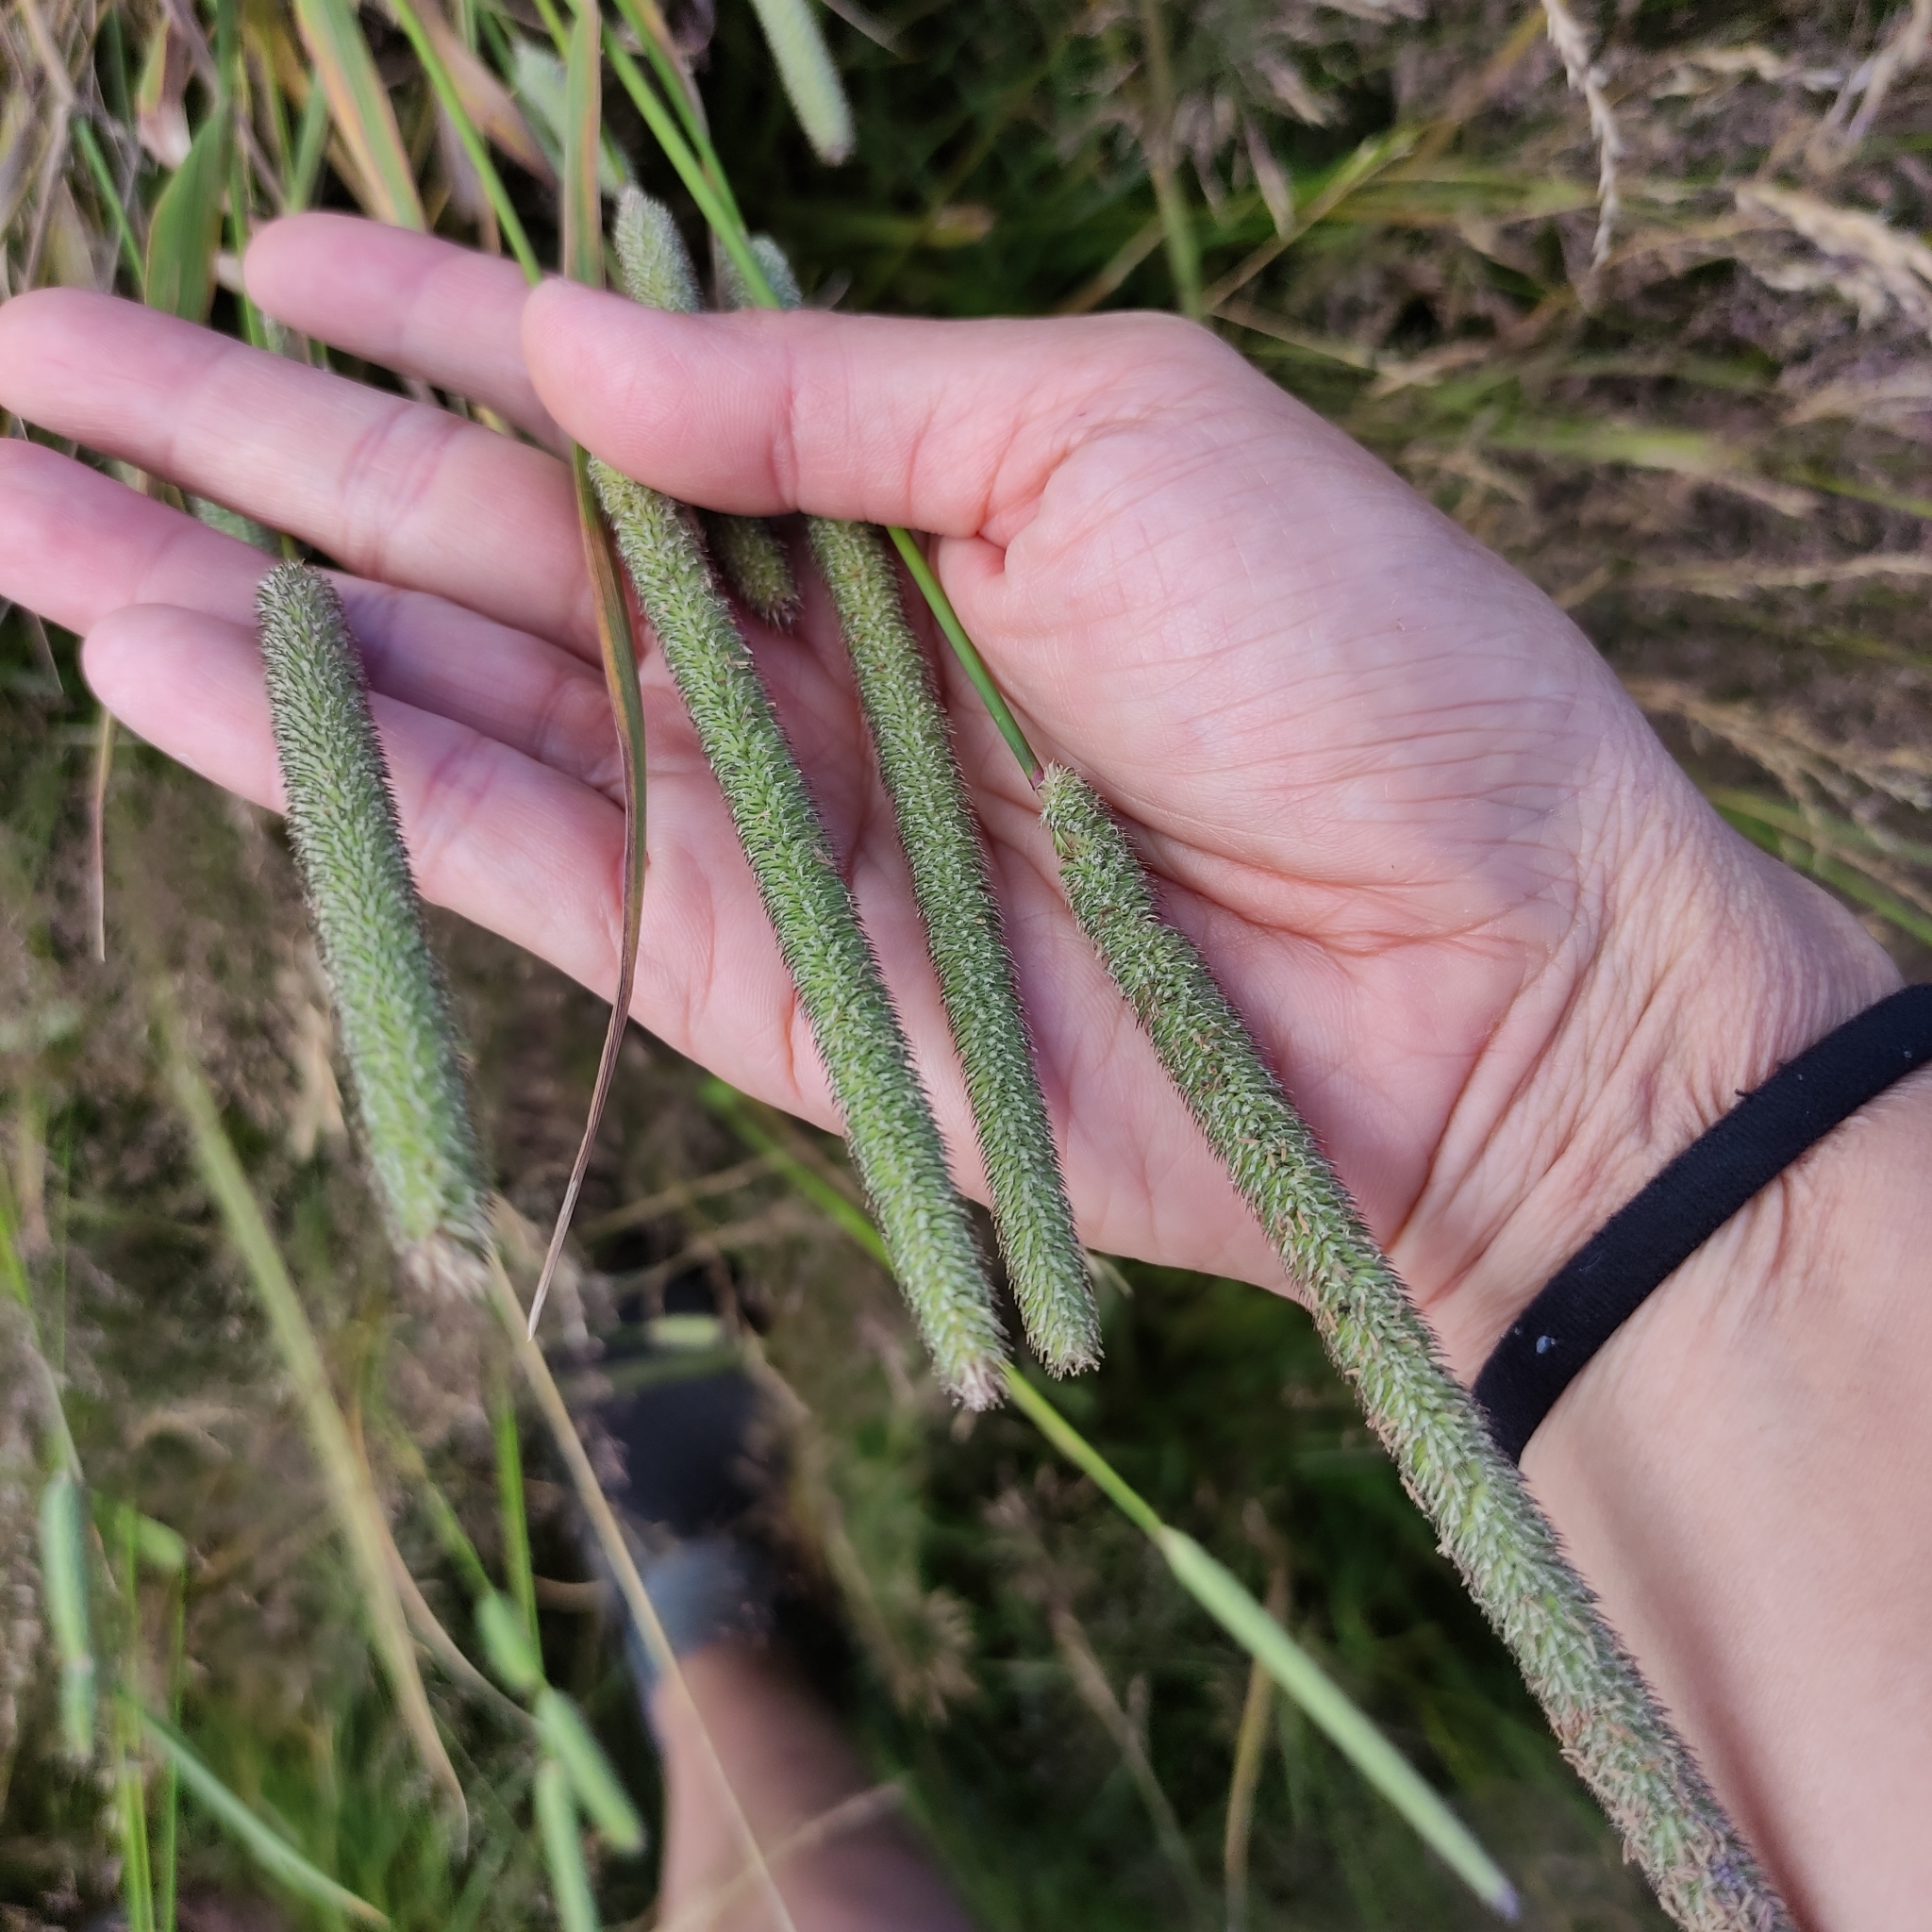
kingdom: Plantae
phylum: Tracheophyta
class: Liliopsida
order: Poales
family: Poaceae
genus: Phleum
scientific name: Phleum pratense
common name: Timothy grass
